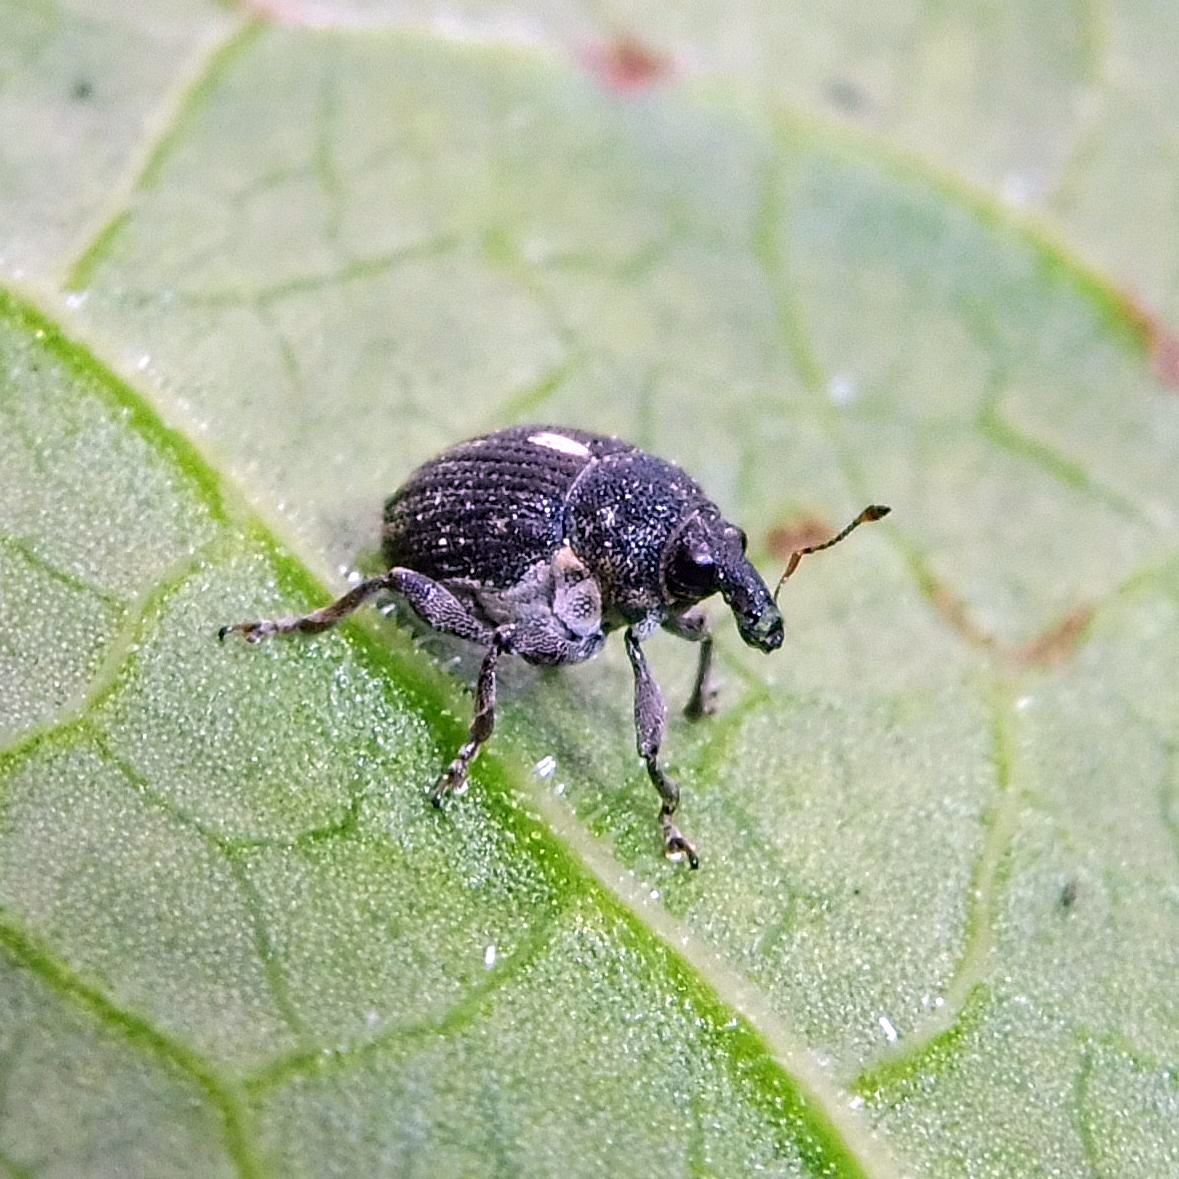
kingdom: Animalia
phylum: Arthropoda
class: Insecta
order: Coleoptera
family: Curculionidae
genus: Rhinoncus
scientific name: Rhinoncus leucostigma
